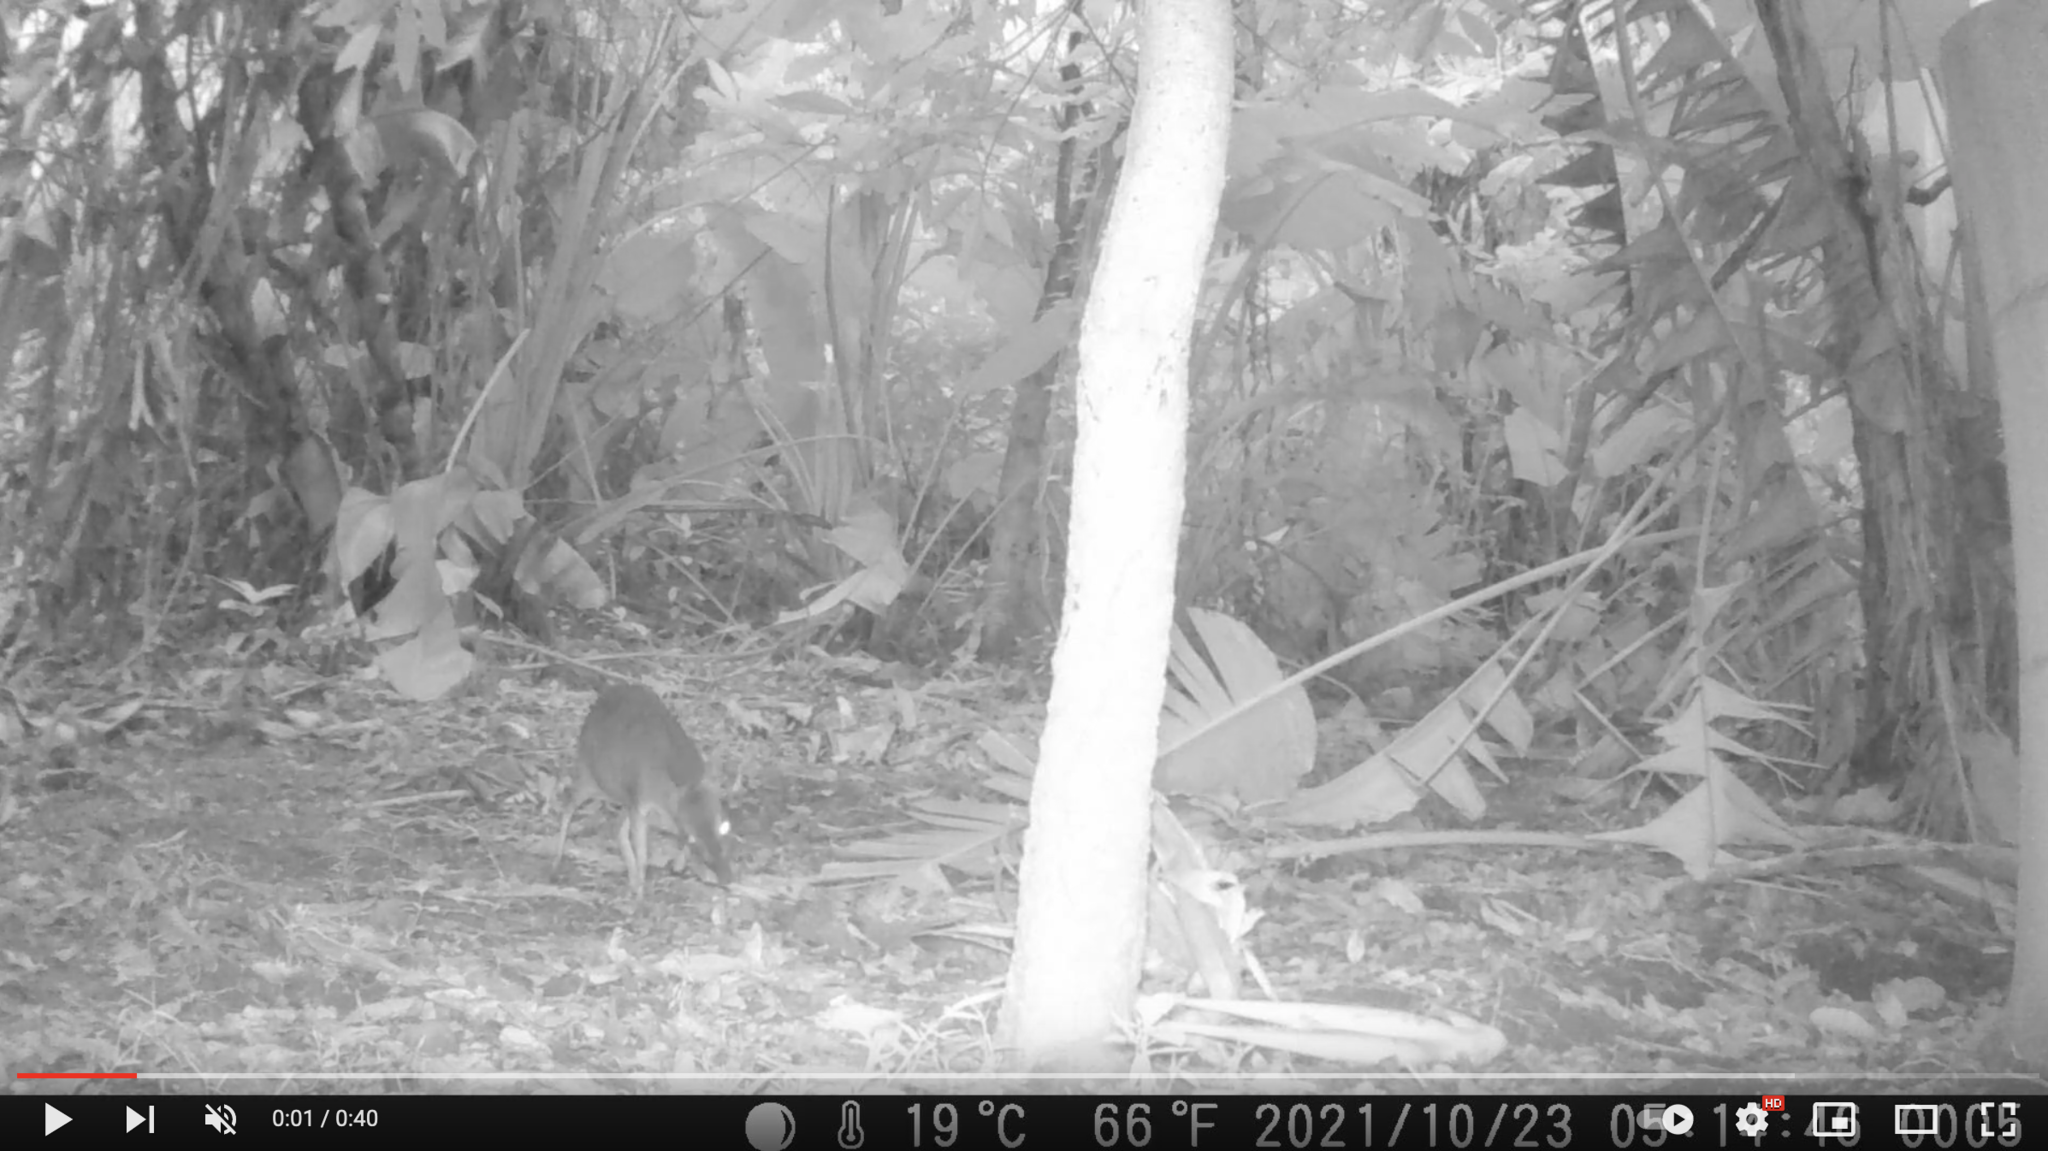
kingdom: Animalia
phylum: Chordata
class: Mammalia
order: Artiodactyla
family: Bovidae
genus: Philantomba
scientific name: Philantomba monticola
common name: Blue duiker
